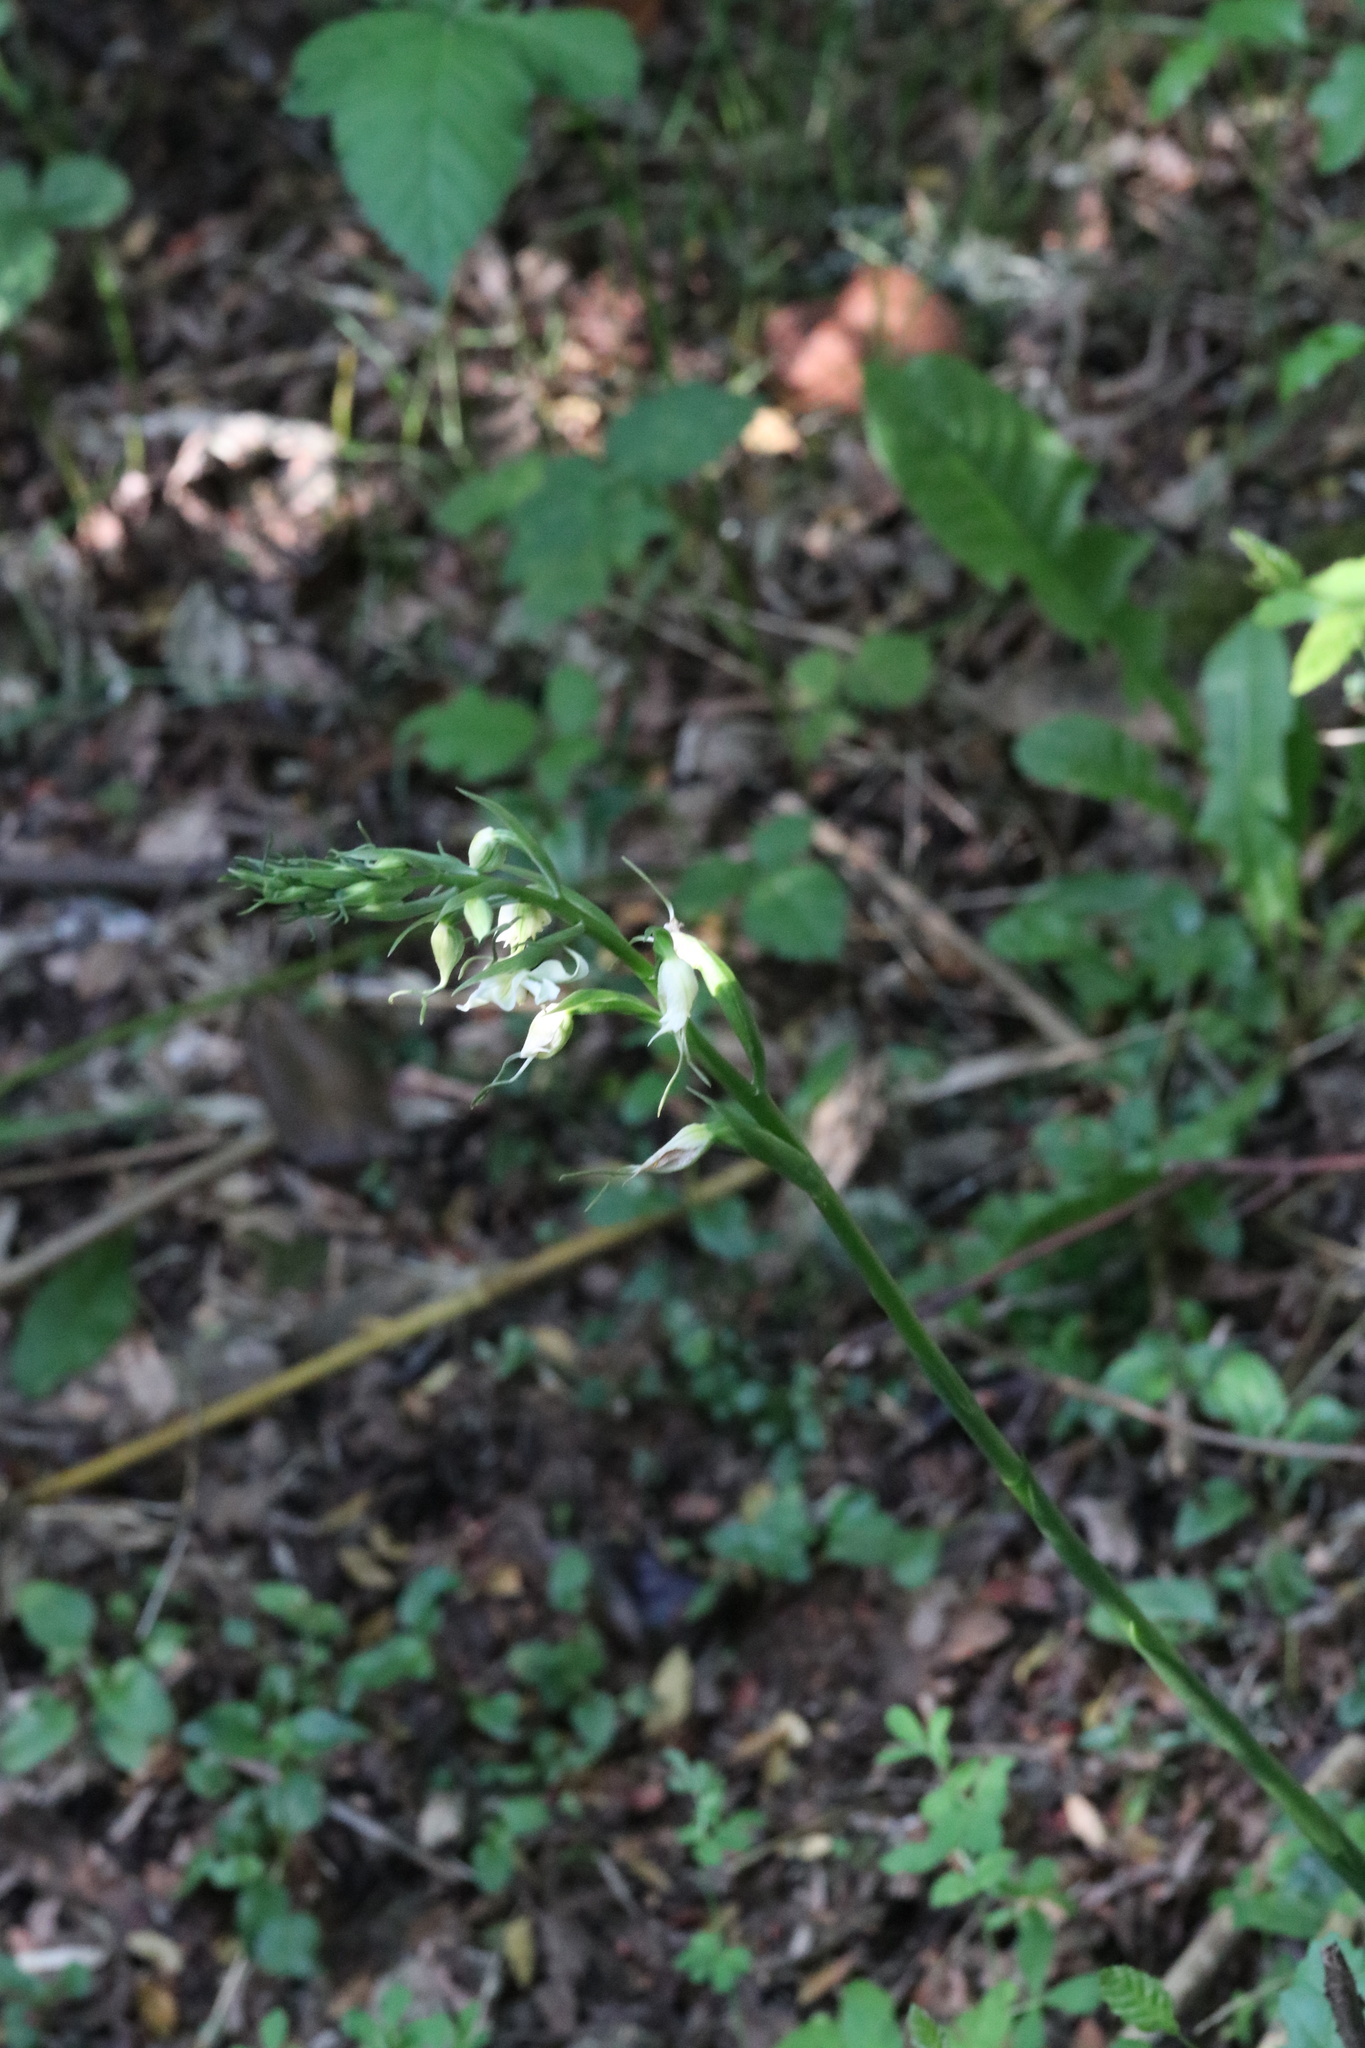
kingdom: Plantae
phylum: Tracheophyta
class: Liliopsida
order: Asparagales
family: Orchidaceae
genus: Gavilea
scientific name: Gavilea araucana
